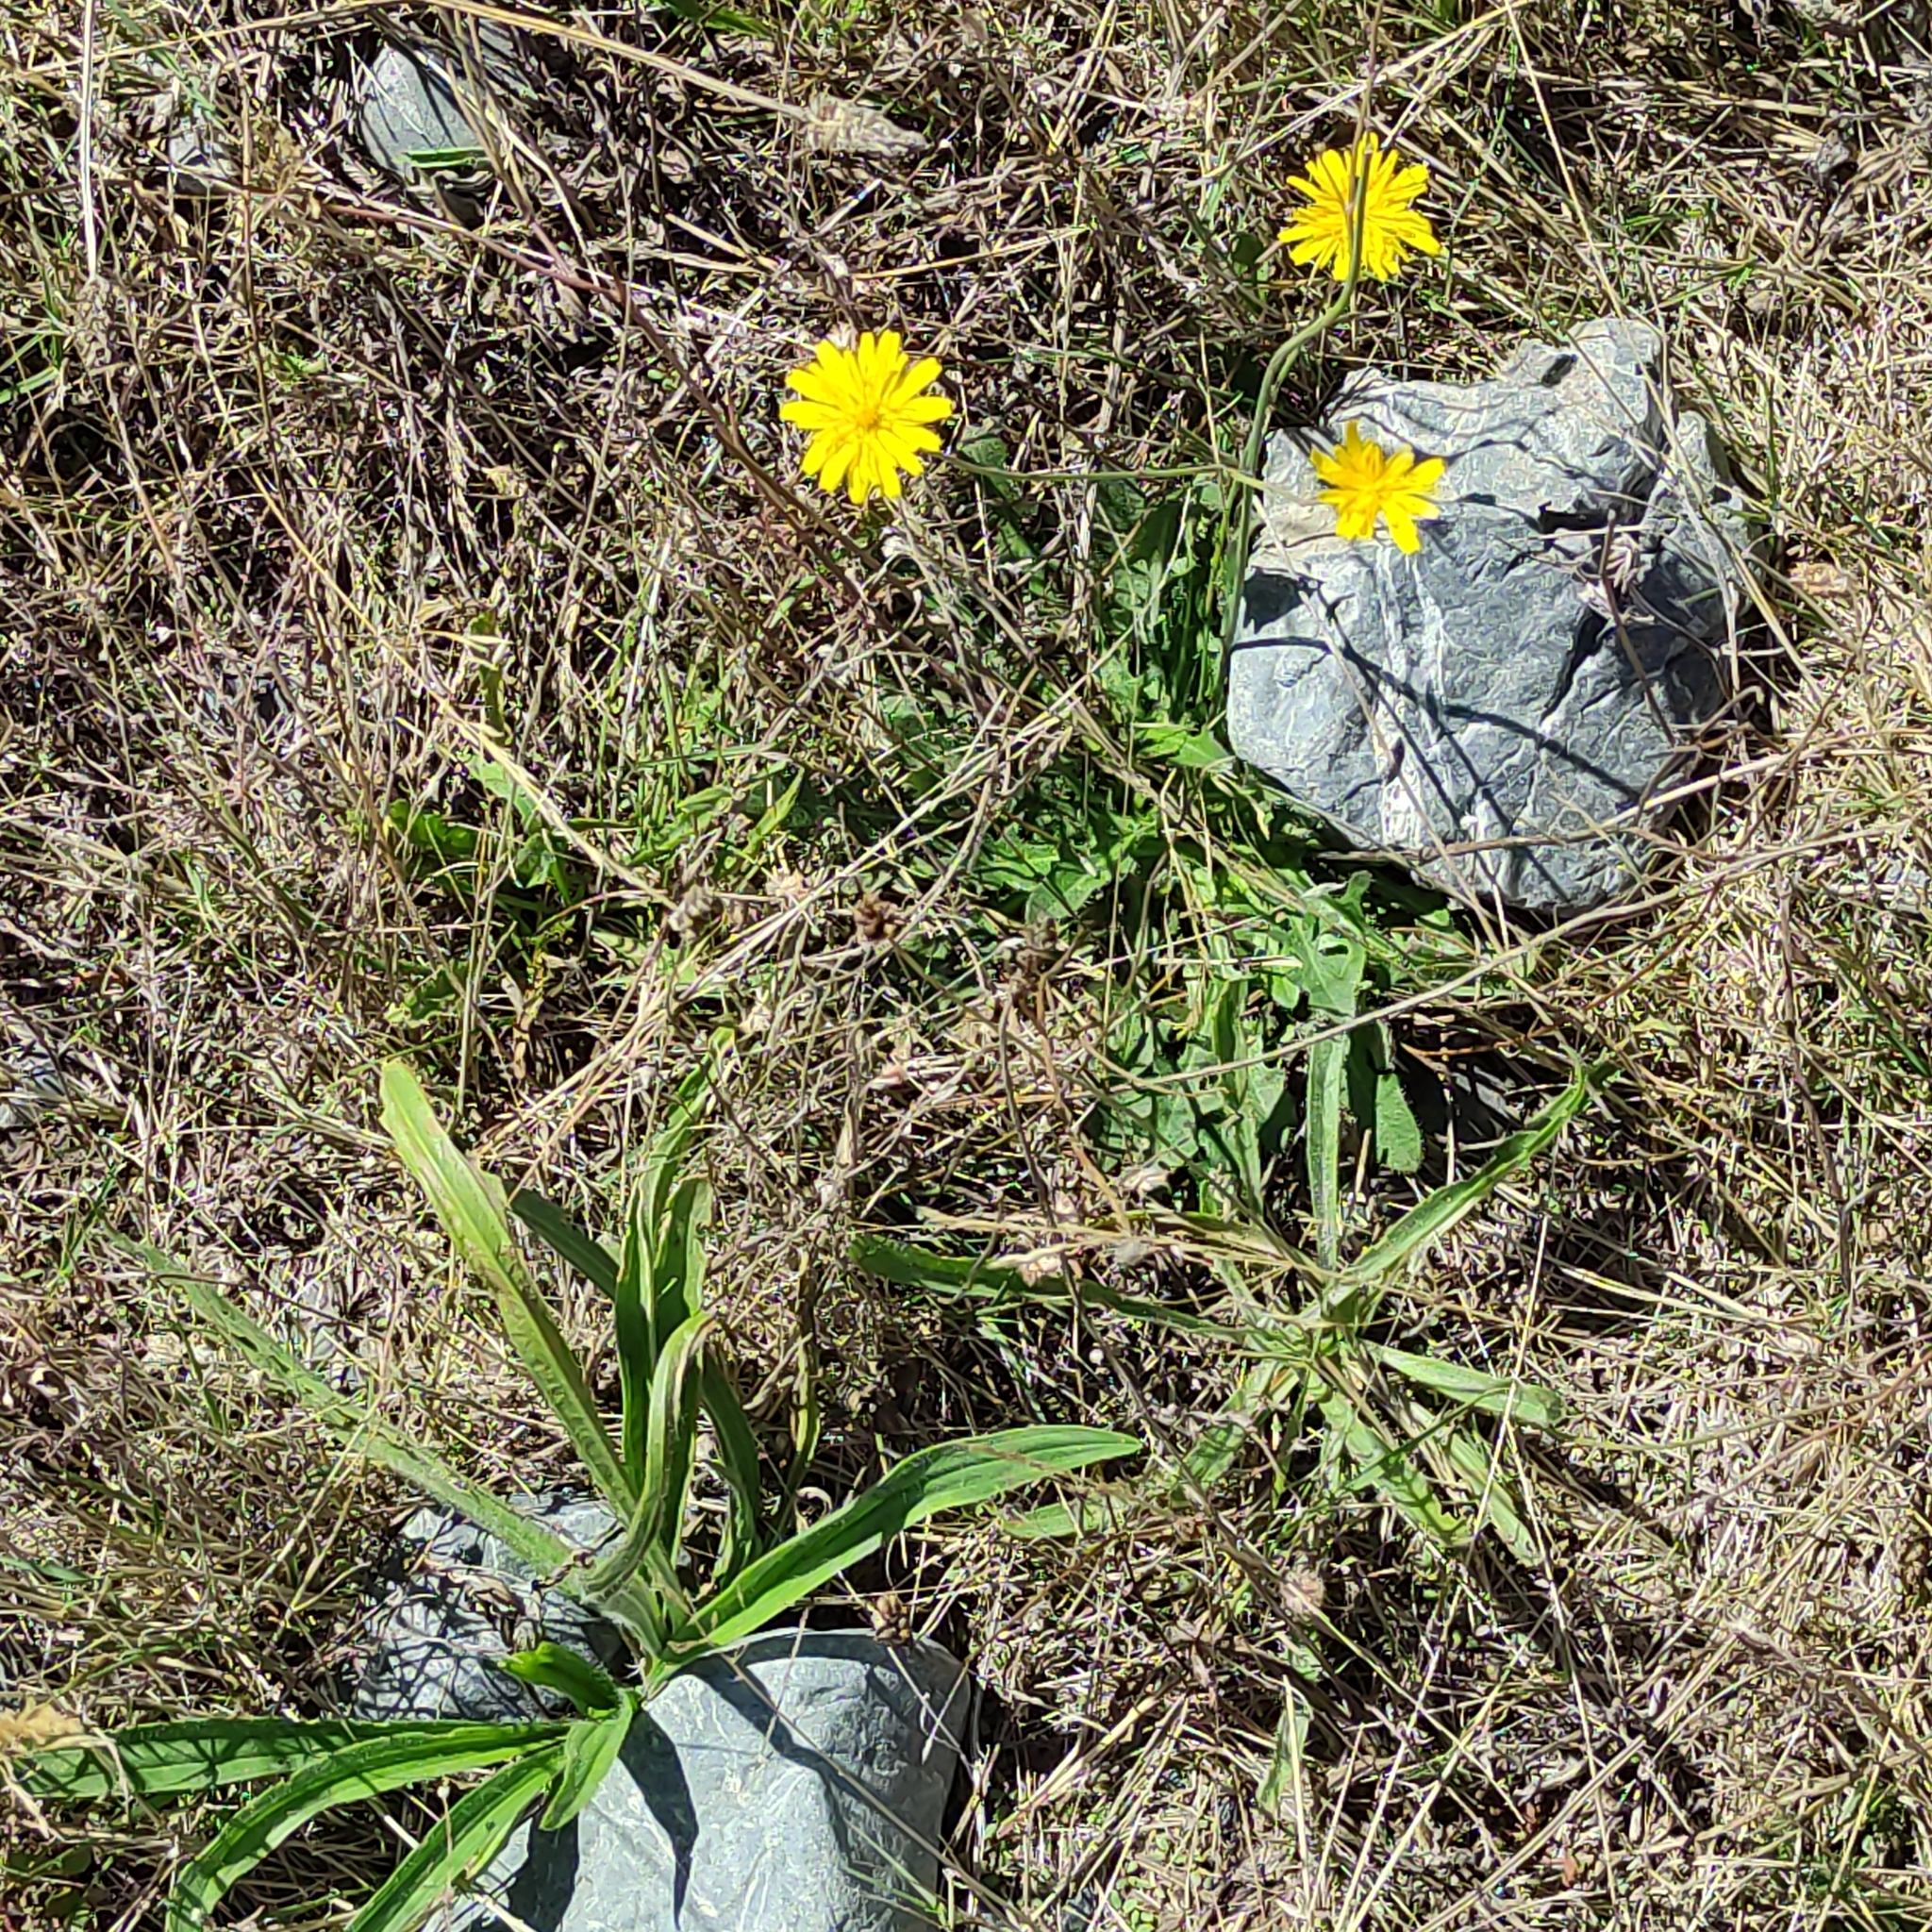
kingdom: Plantae
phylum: Tracheophyta
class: Magnoliopsida
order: Asterales
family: Asteraceae
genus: Hypochaeris
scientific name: Hypochaeris radicata
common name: Flatweed
